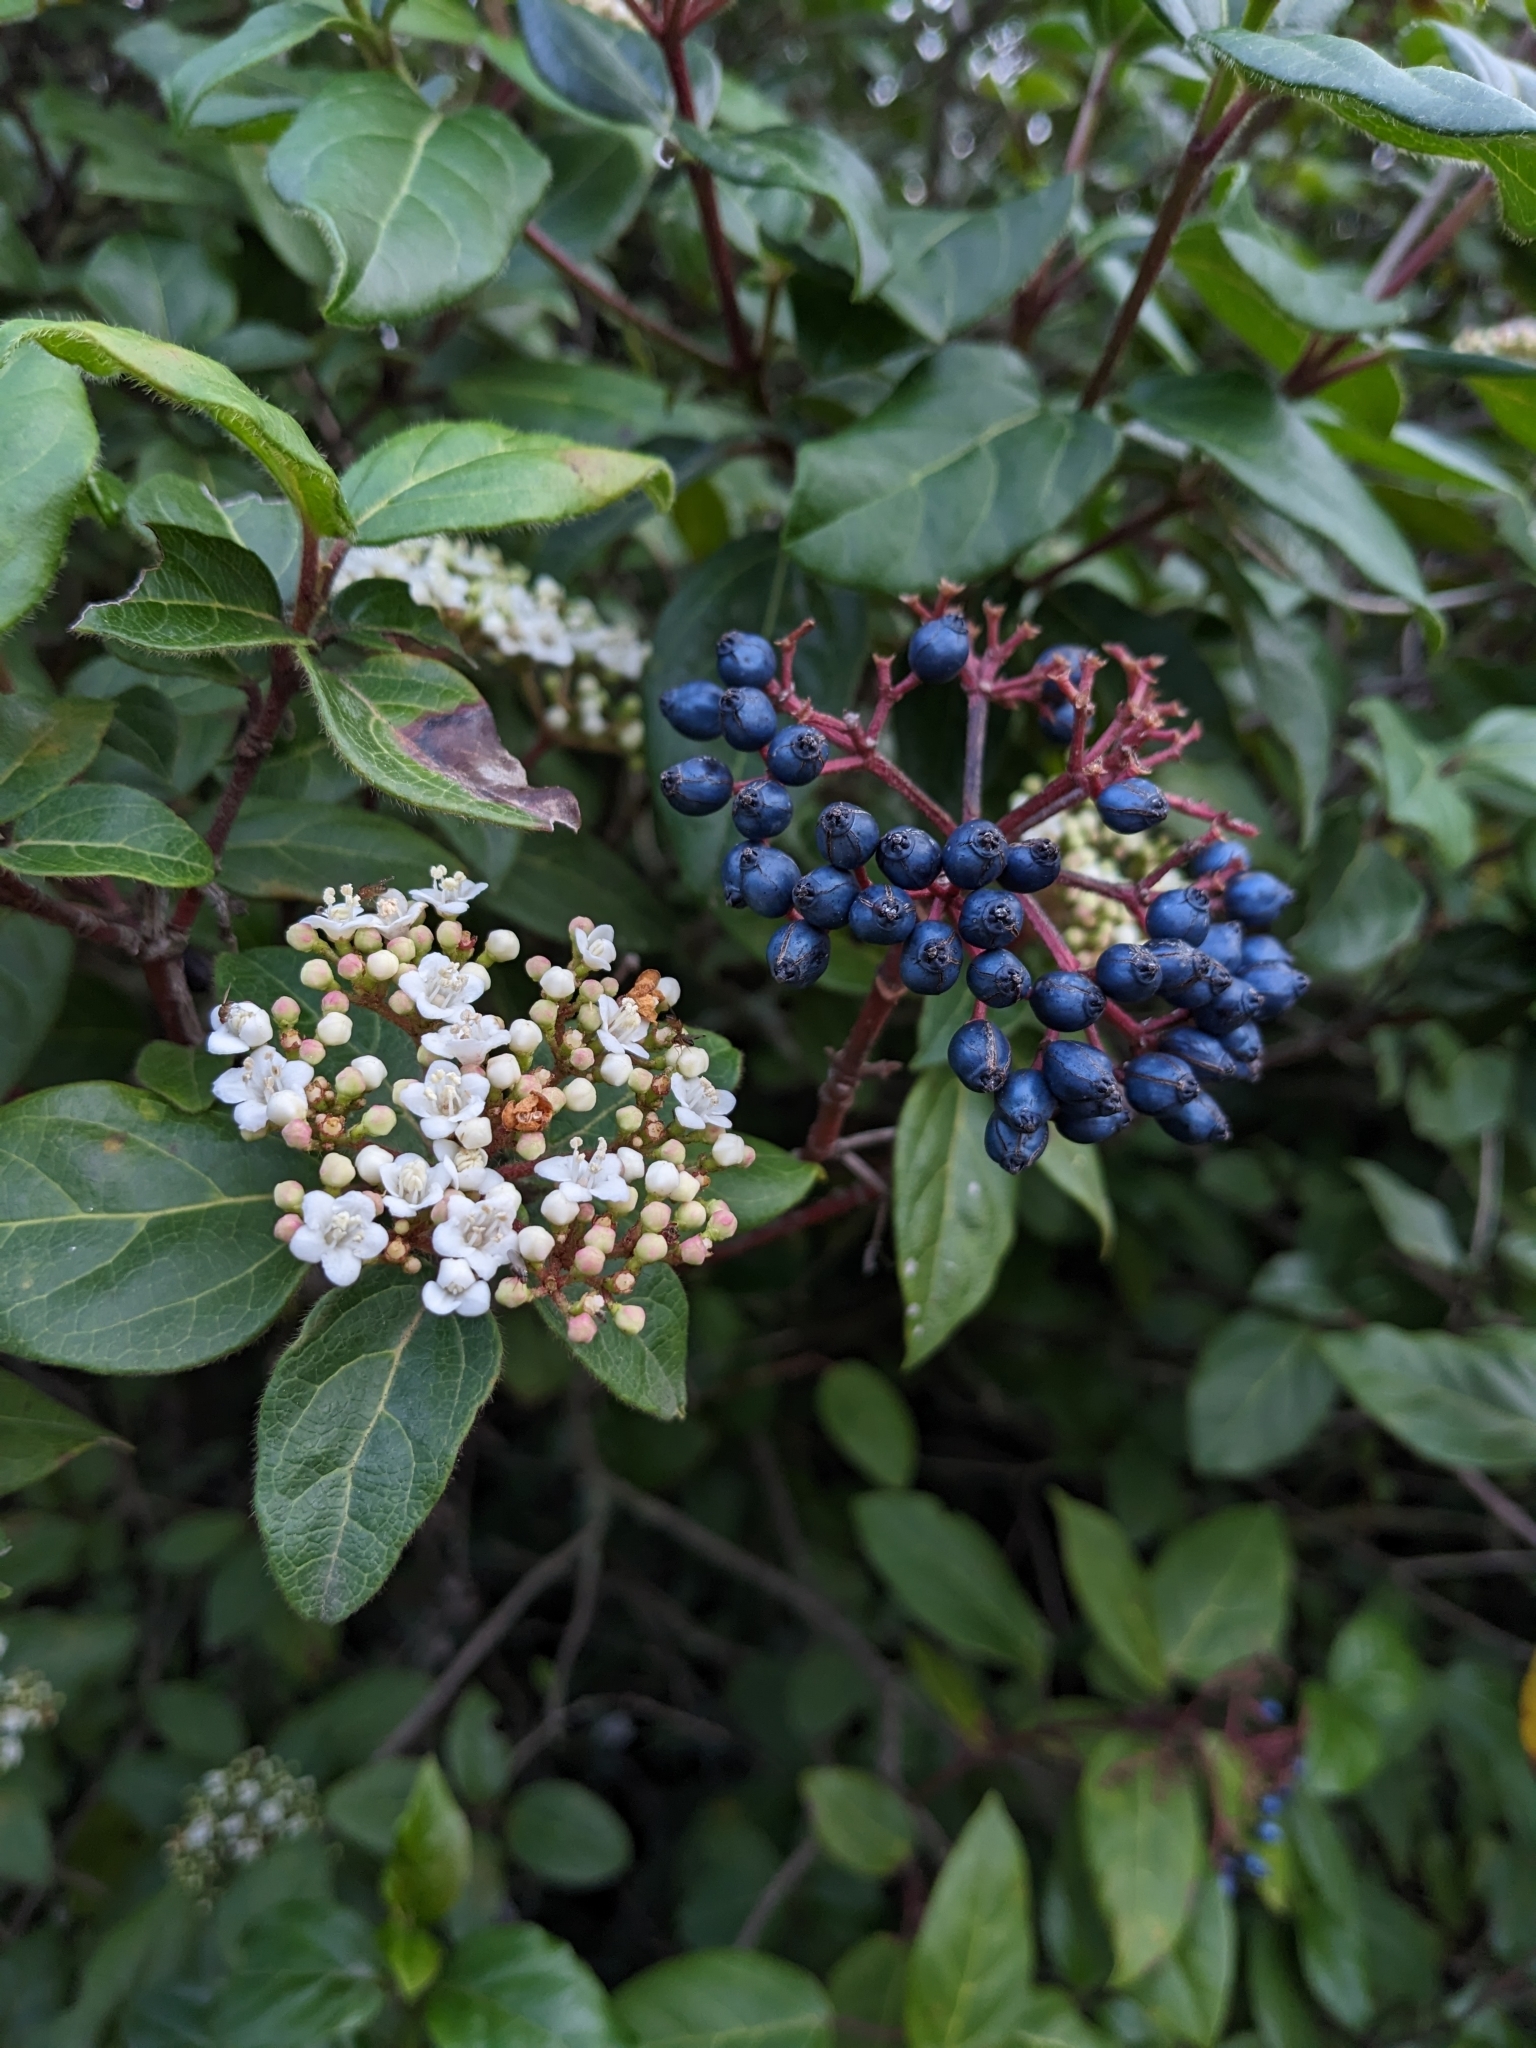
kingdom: Plantae
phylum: Tracheophyta
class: Magnoliopsida
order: Dipsacales
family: Viburnaceae
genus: Viburnum
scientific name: Viburnum tinus
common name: Laurustinus
